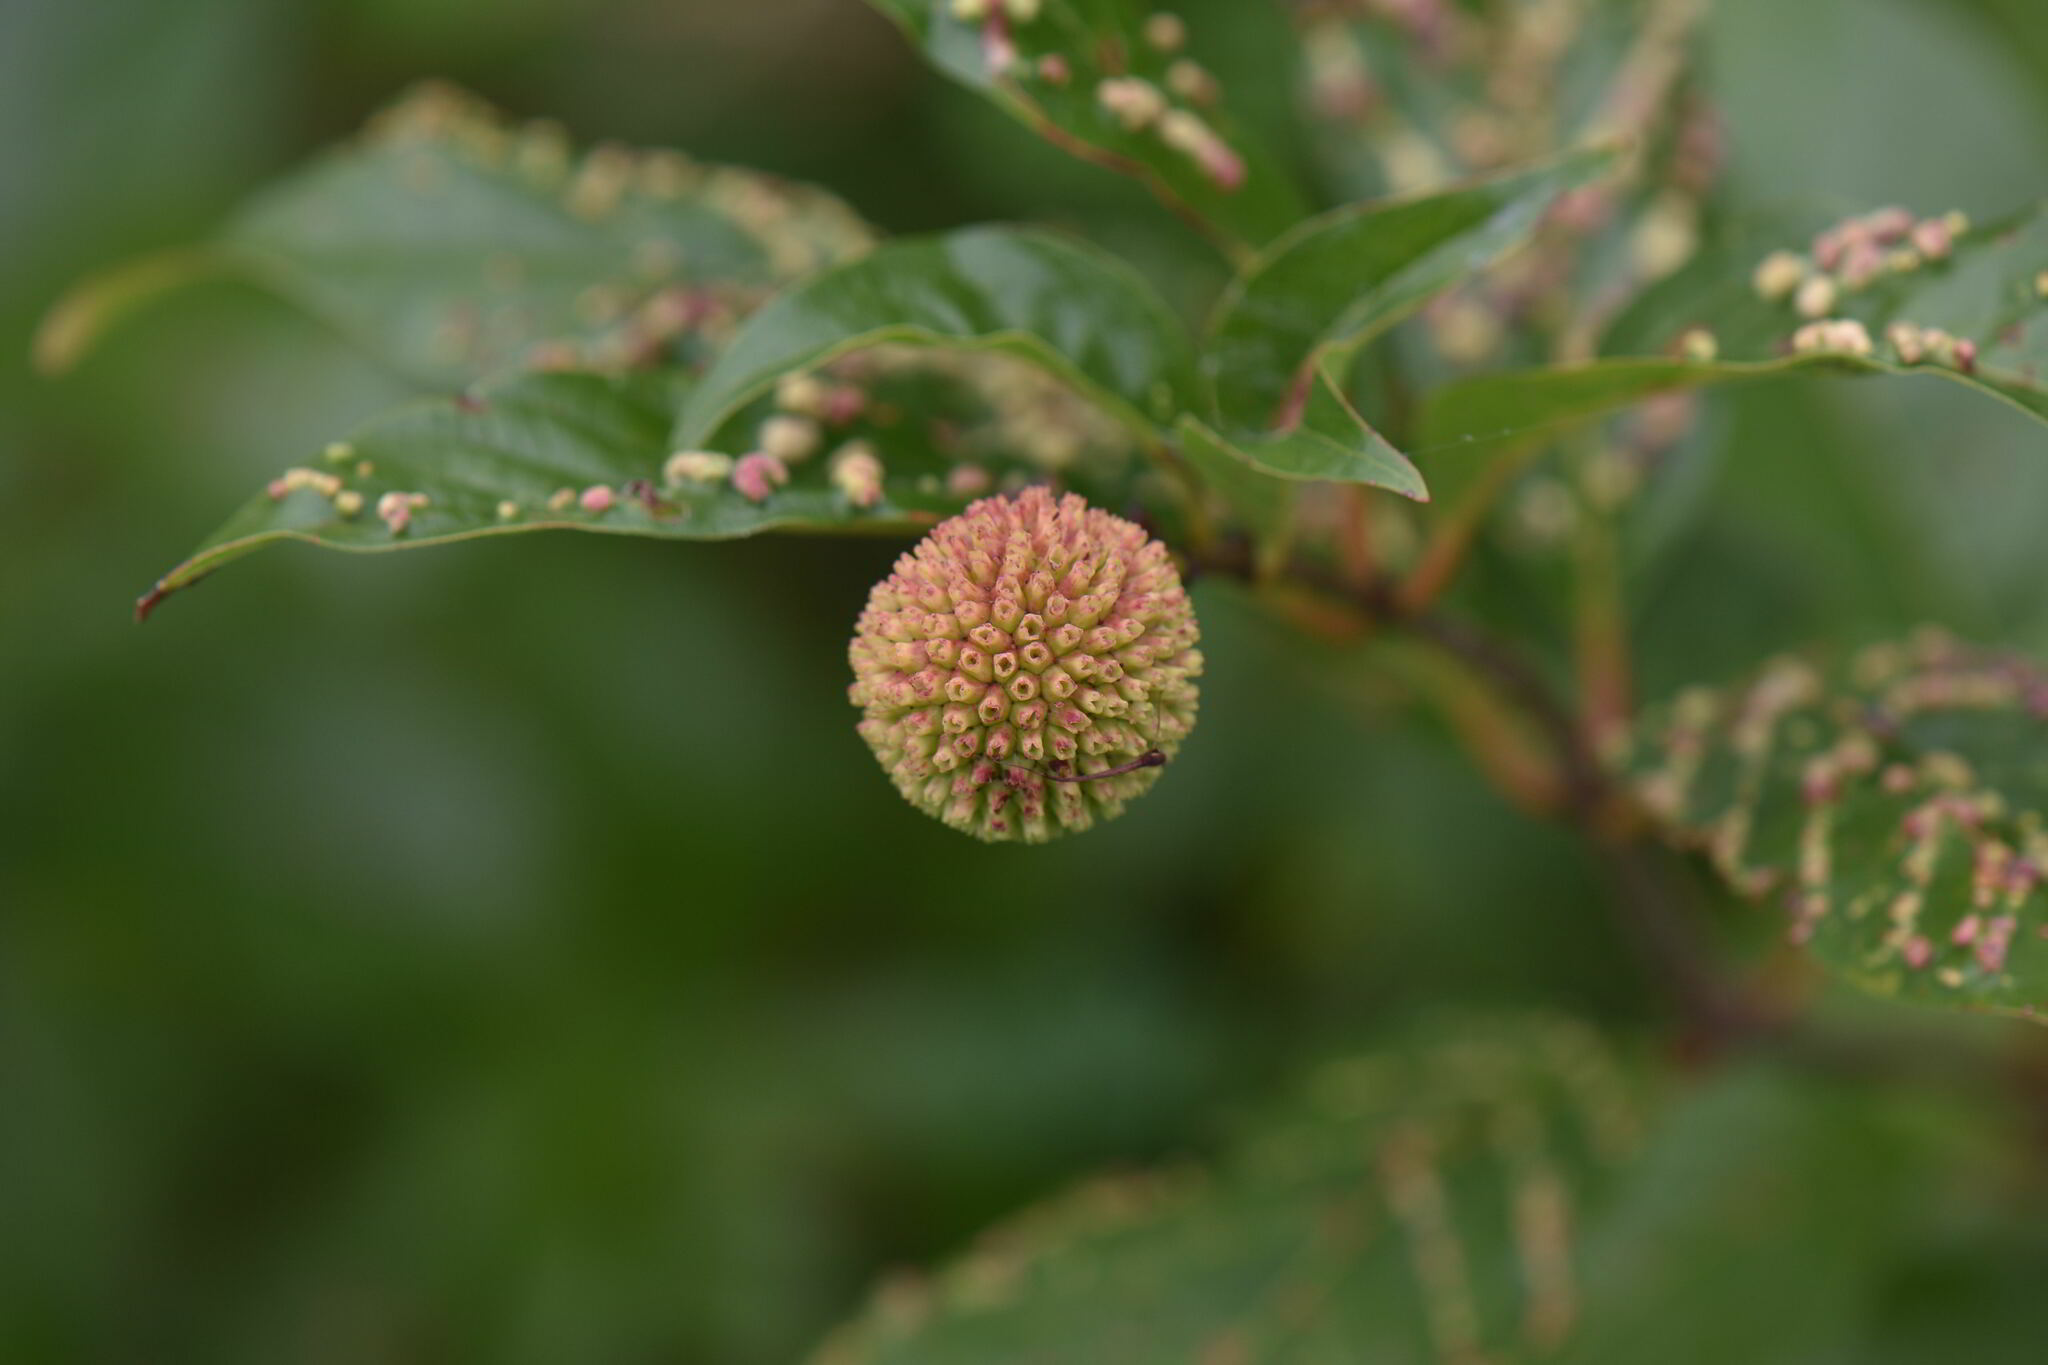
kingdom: Plantae
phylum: Tracheophyta
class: Magnoliopsida
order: Gentianales
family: Rubiaceae
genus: Cephalanthus
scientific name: Cephalanthus occidentalis
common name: Button-willow
